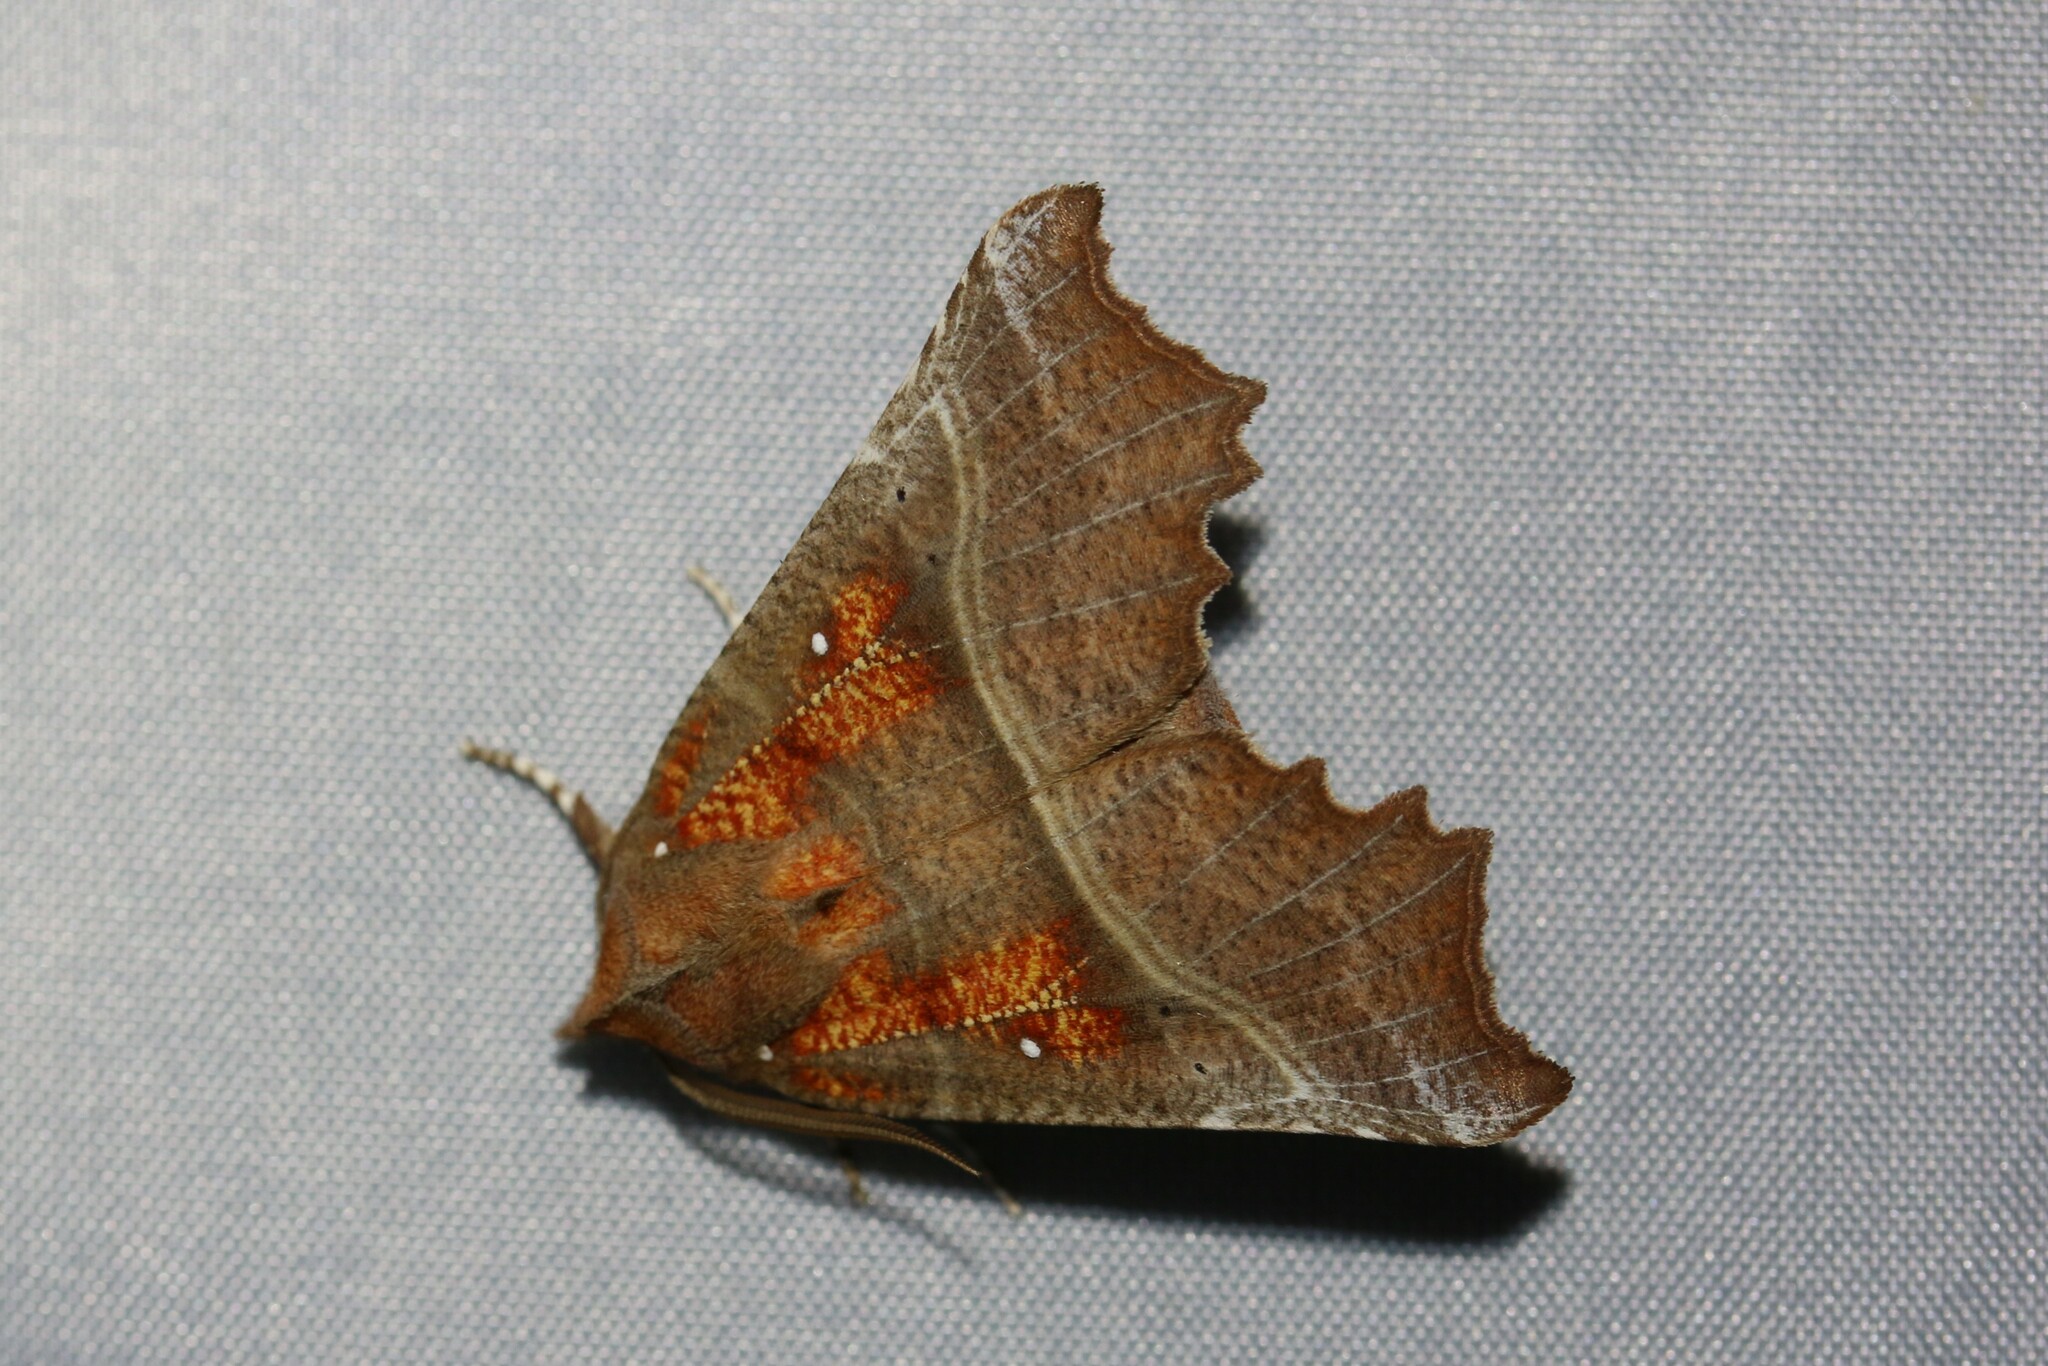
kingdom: Animalia
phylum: Arthropoda
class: Insecta
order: Lepidoptera
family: Erebidae
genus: Scoliopteryx
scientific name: Scoliopteryx libatrix
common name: Herald
